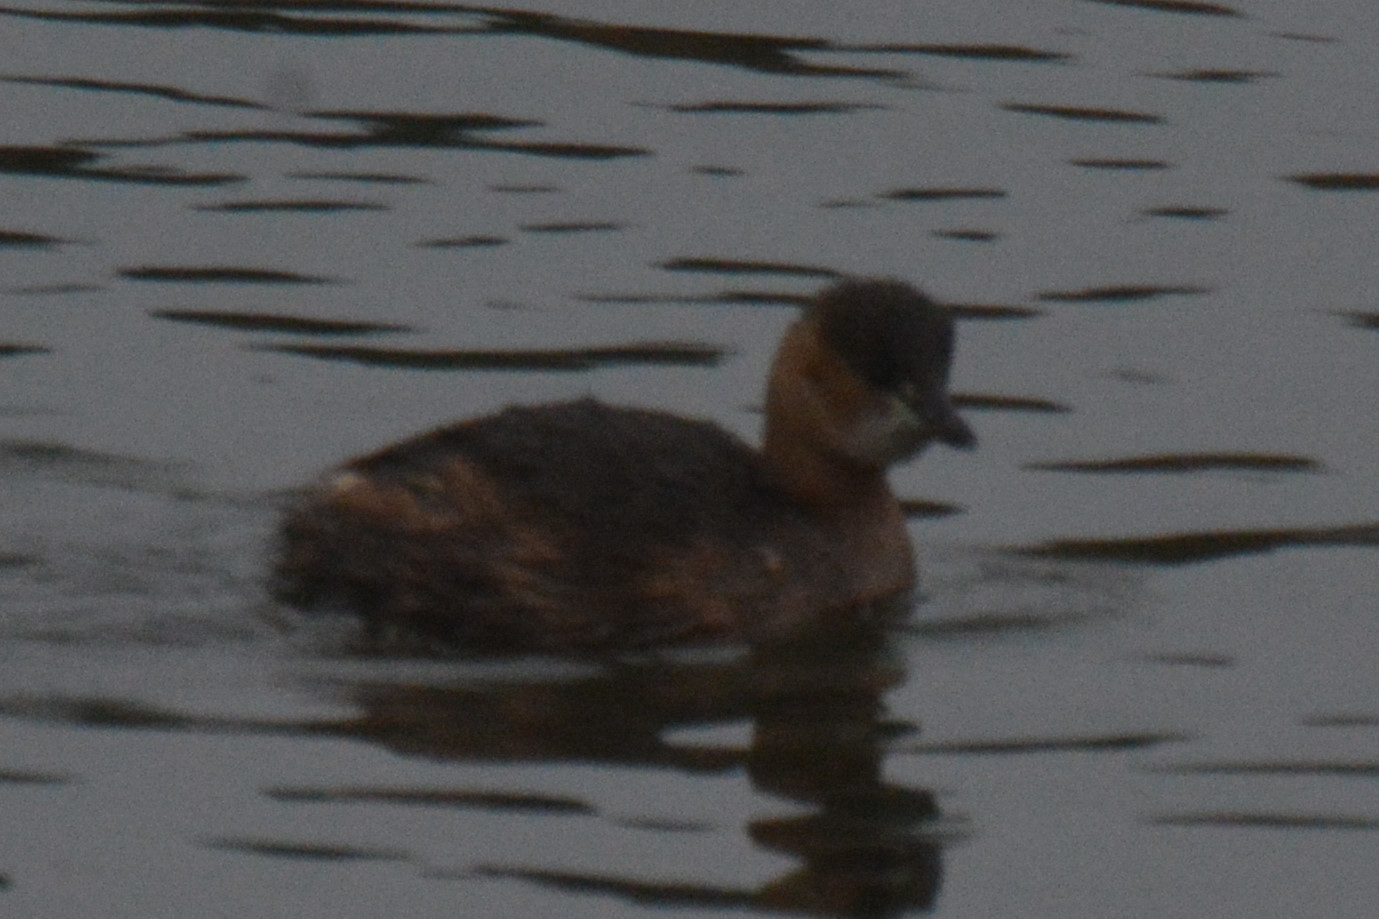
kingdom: Animalia
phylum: Chordata
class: Aves
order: Podicipediformes
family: Podicipedidae
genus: Tachybaptus
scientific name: Tachybaptus ruficollis
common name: Little grebe
